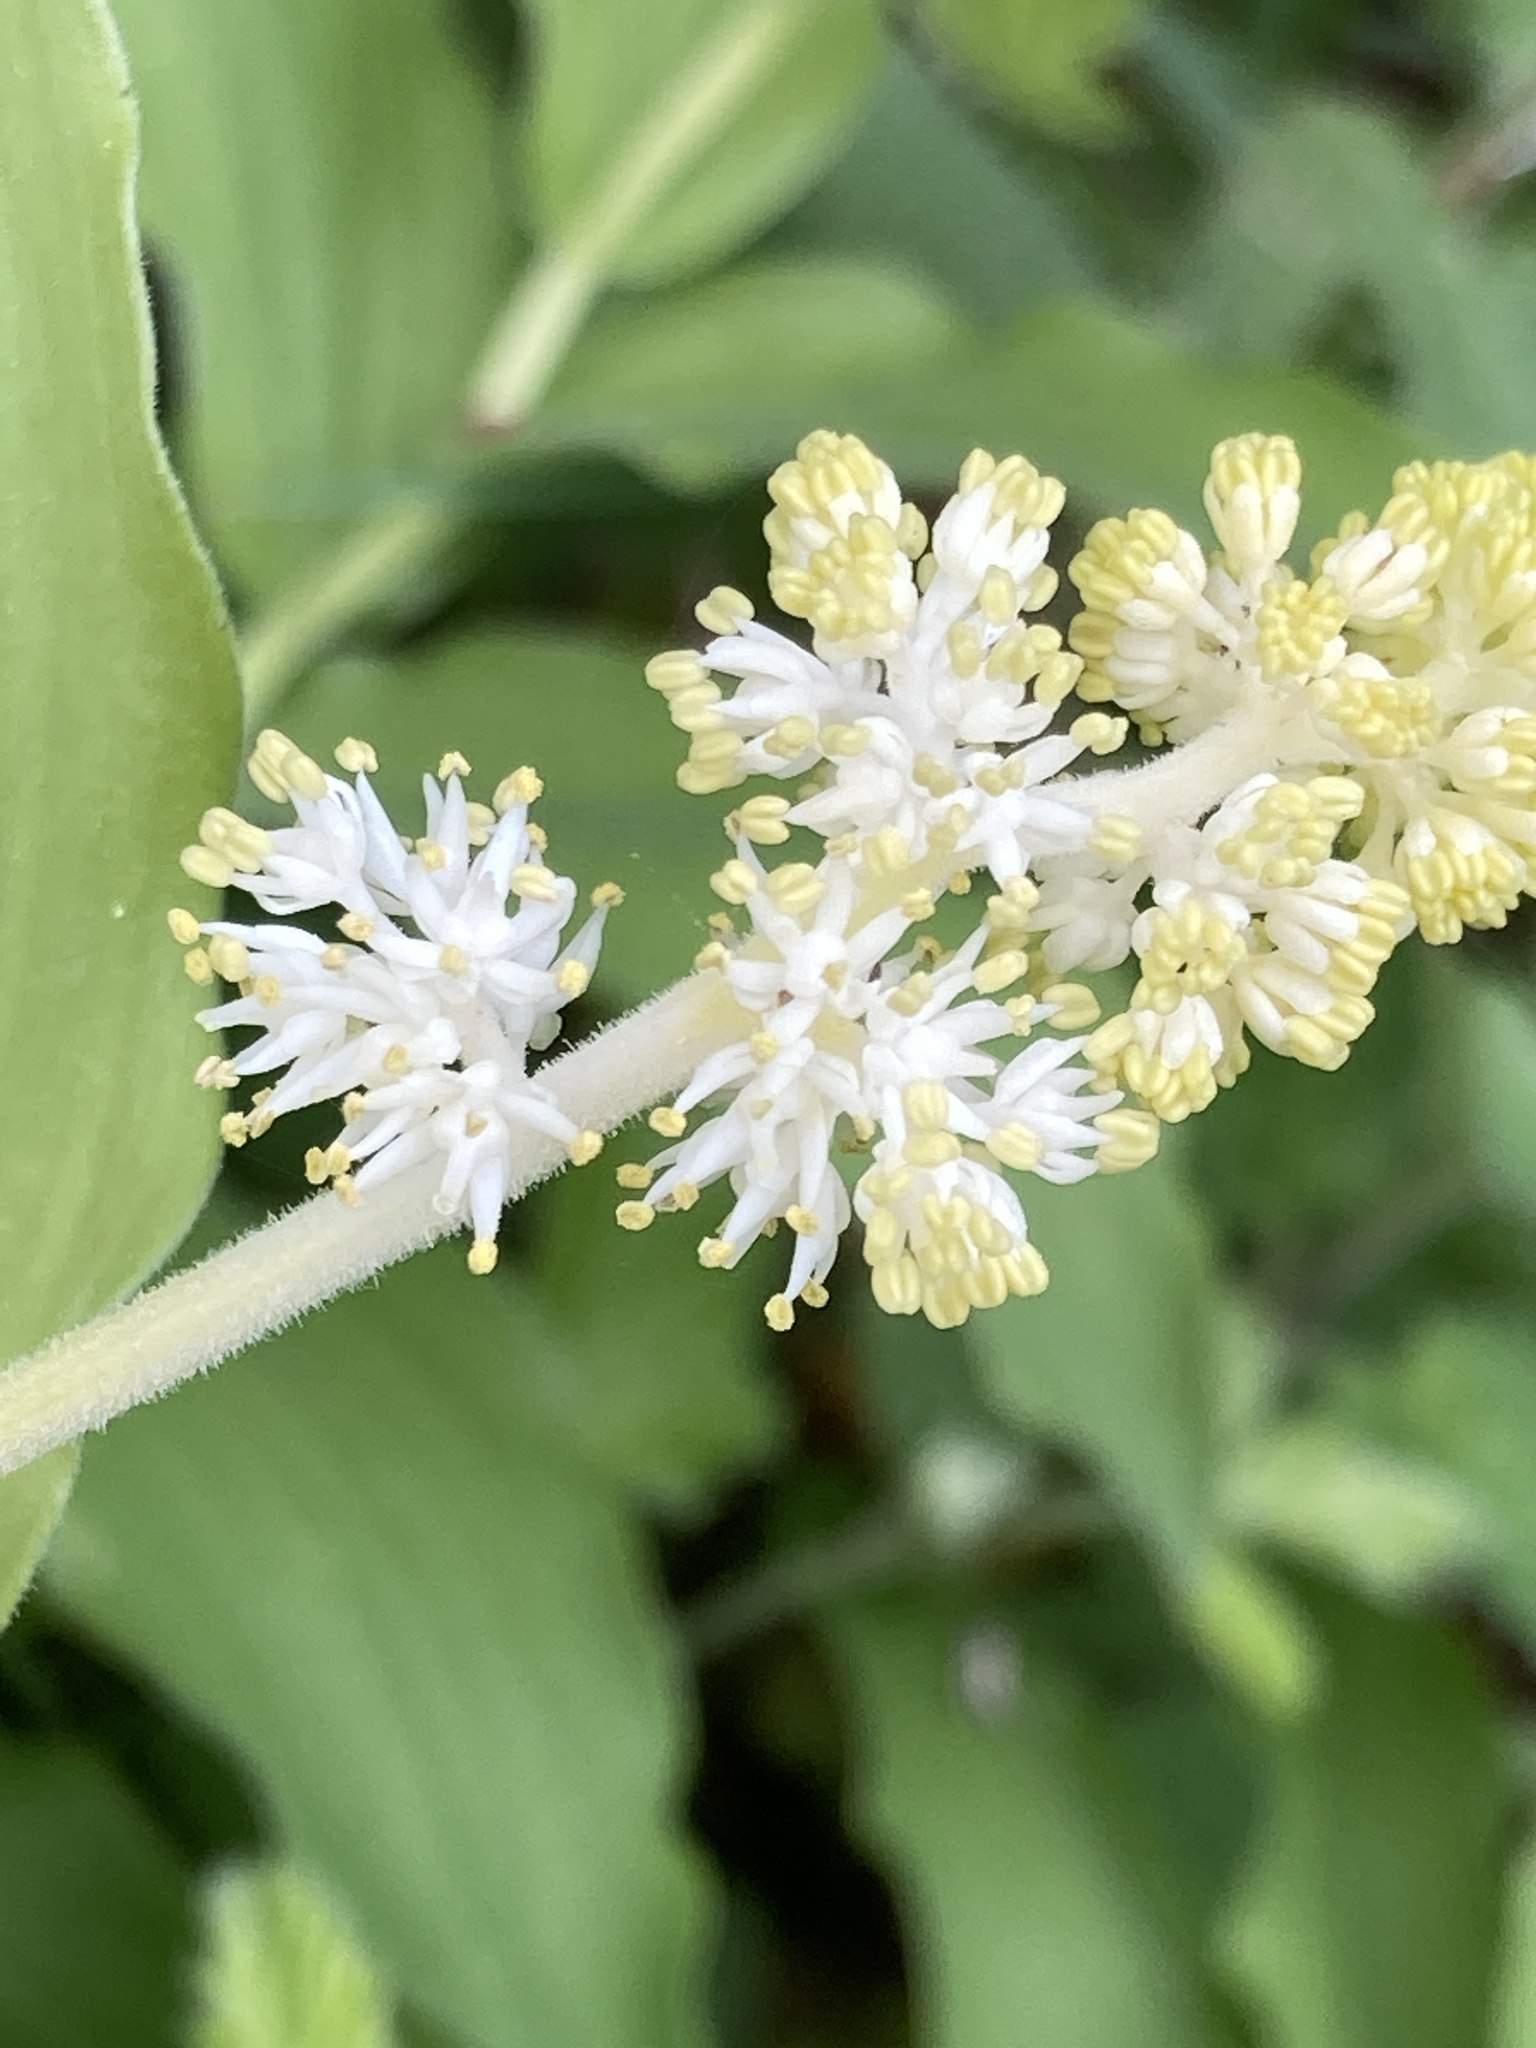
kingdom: Plantae
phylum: Tracheophyta
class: Liliopsida
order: Asparagales
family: Asparagaceae
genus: Maianthemum
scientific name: Maianthemum racemosum
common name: False spikenard
